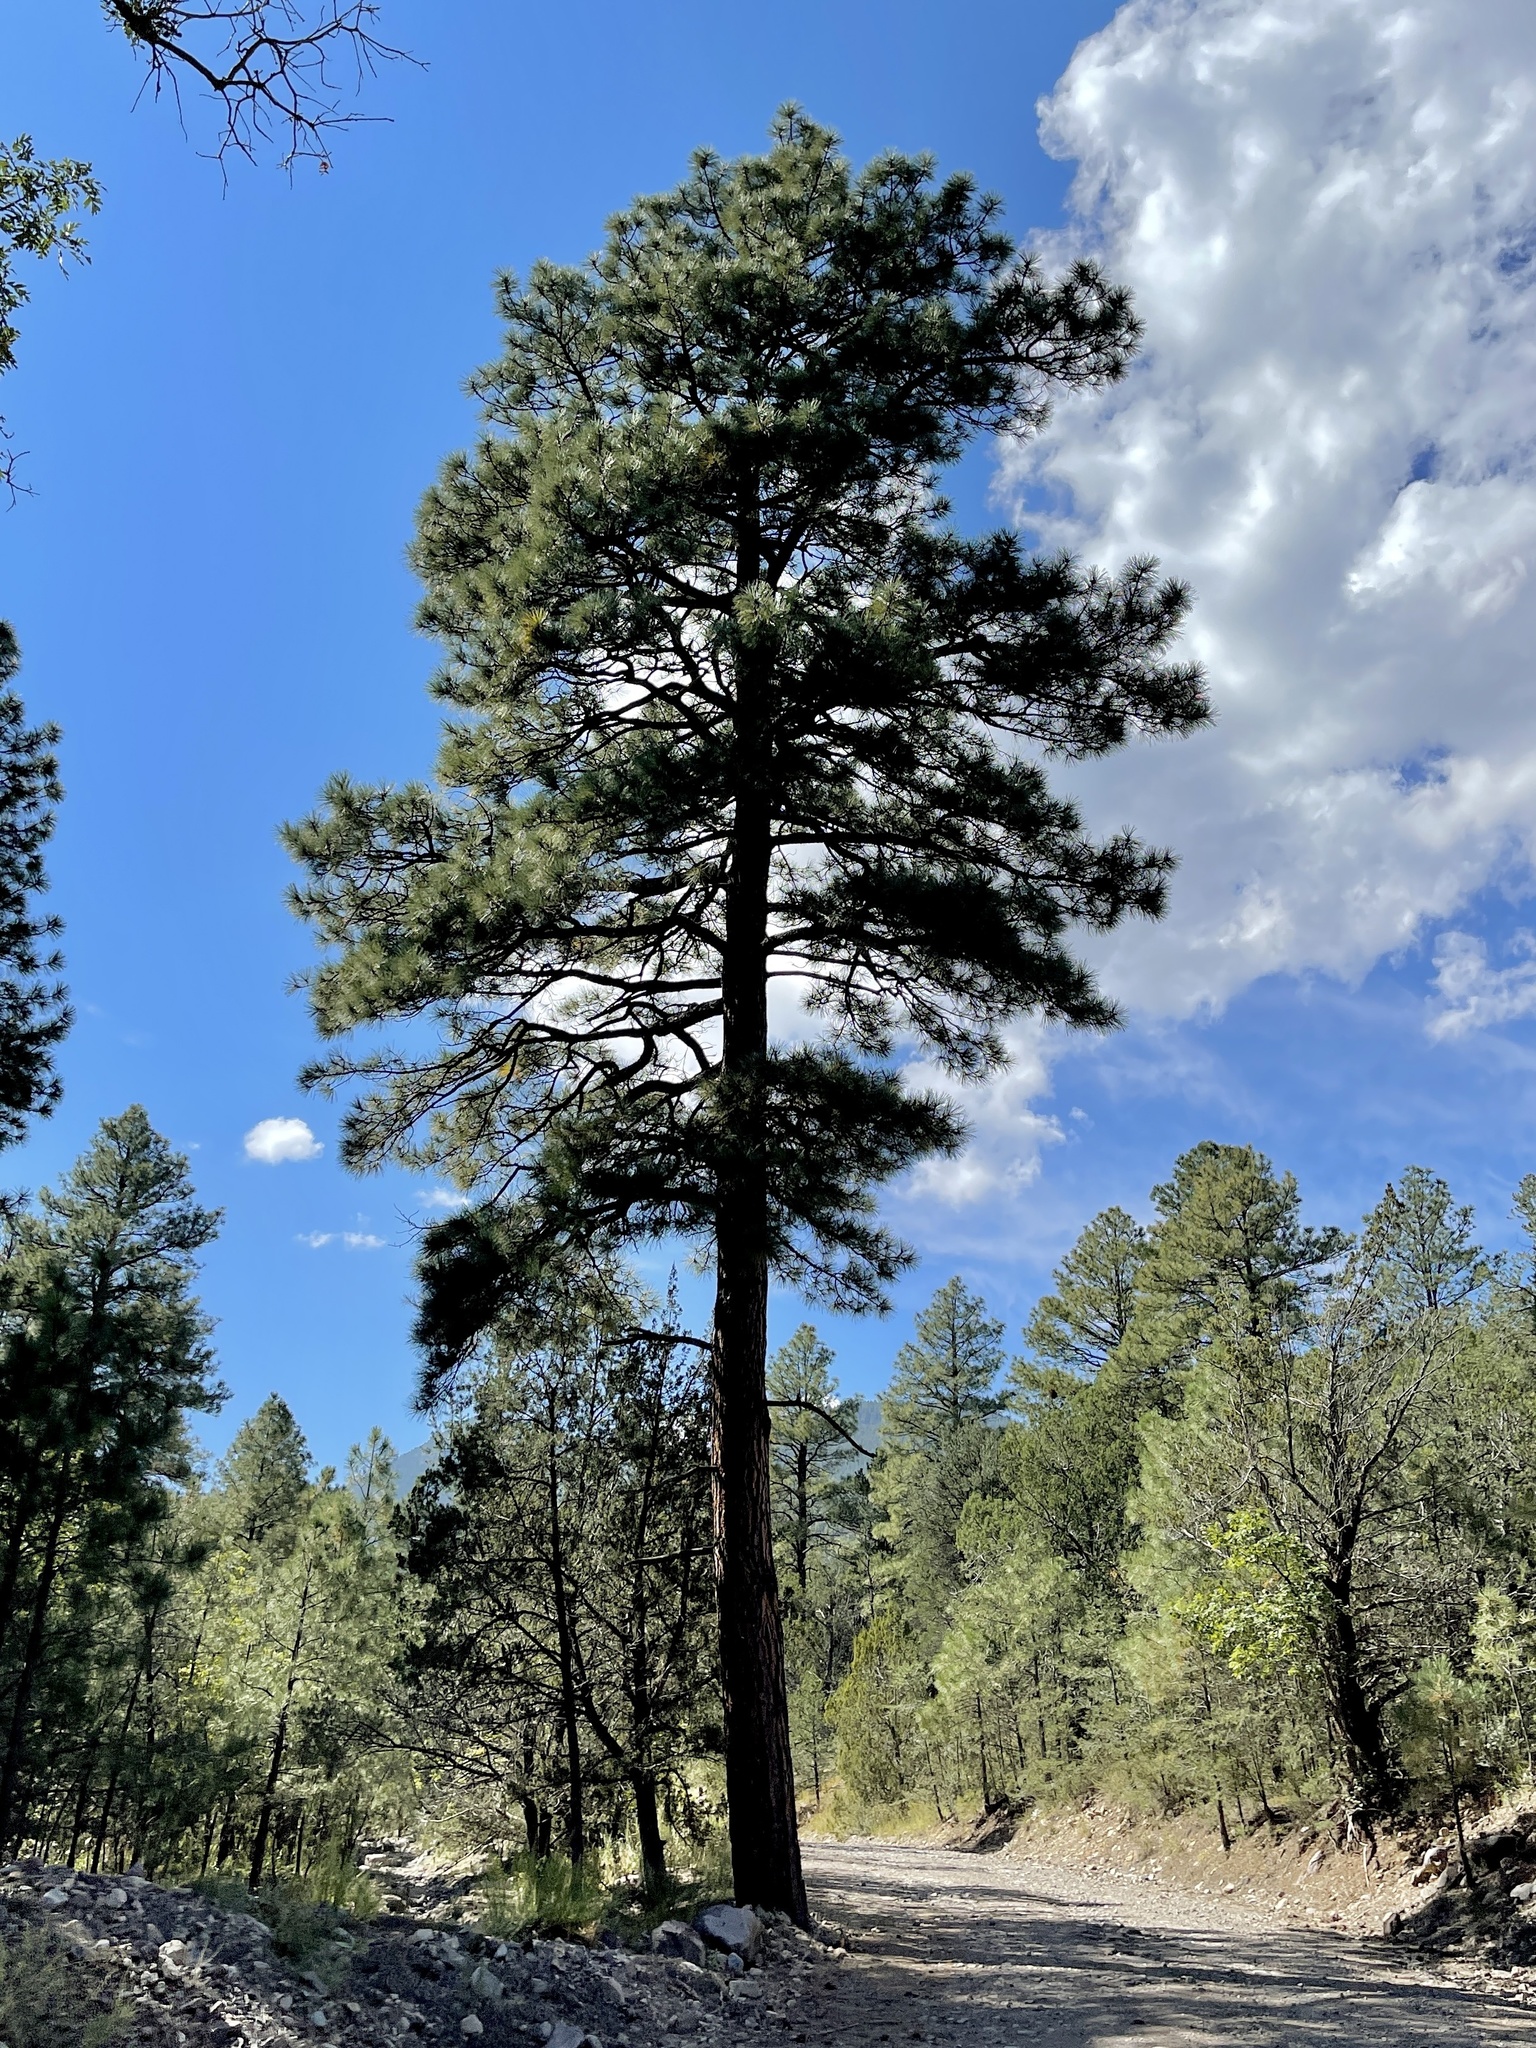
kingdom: Plantae
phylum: Tracheophyta
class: Pinopsida
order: Pinales
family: Pinaceae
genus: Pinus
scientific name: Pinus ponderosa
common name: Western yellow-pine
